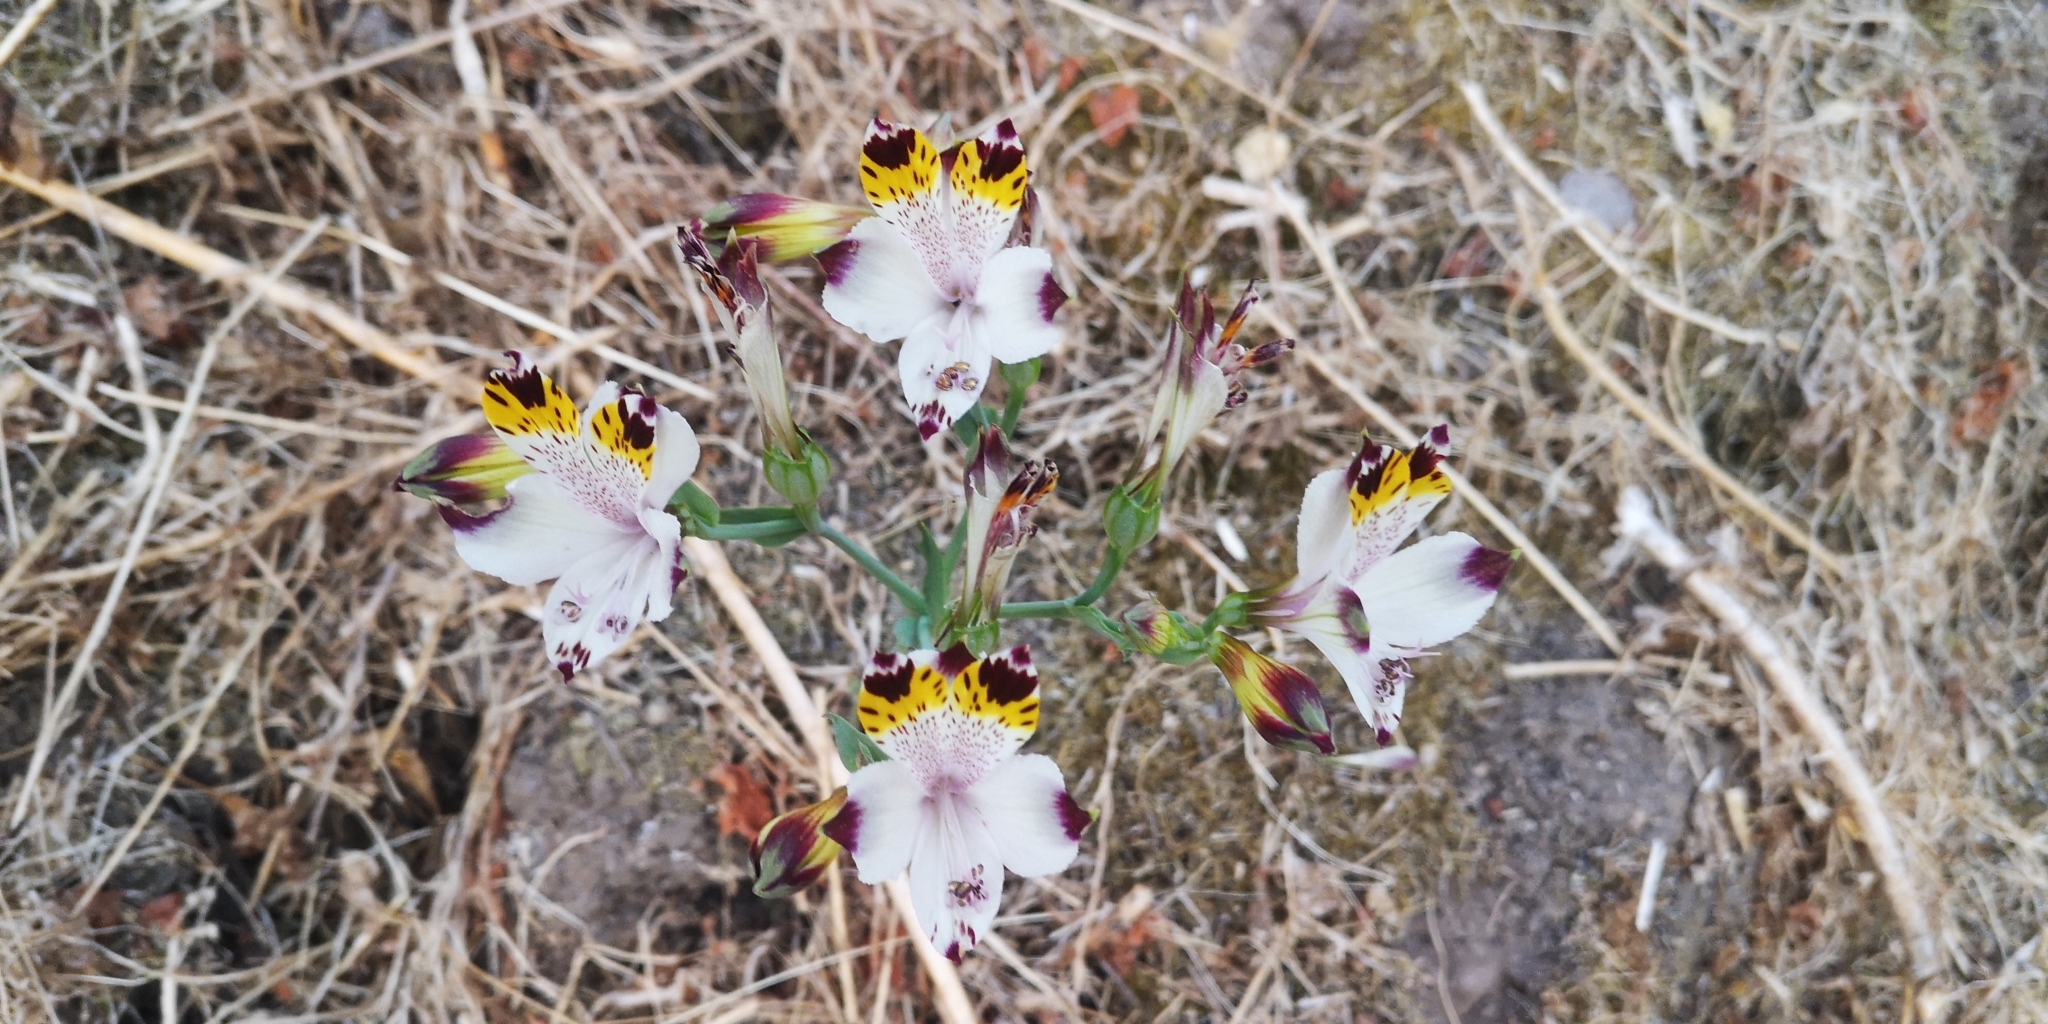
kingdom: Plantae
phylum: Tracheophyta
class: Liliopsida
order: Liliales
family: Alstroemeriaceae
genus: Alstroemeria
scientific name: Alstroemeria pulchra
